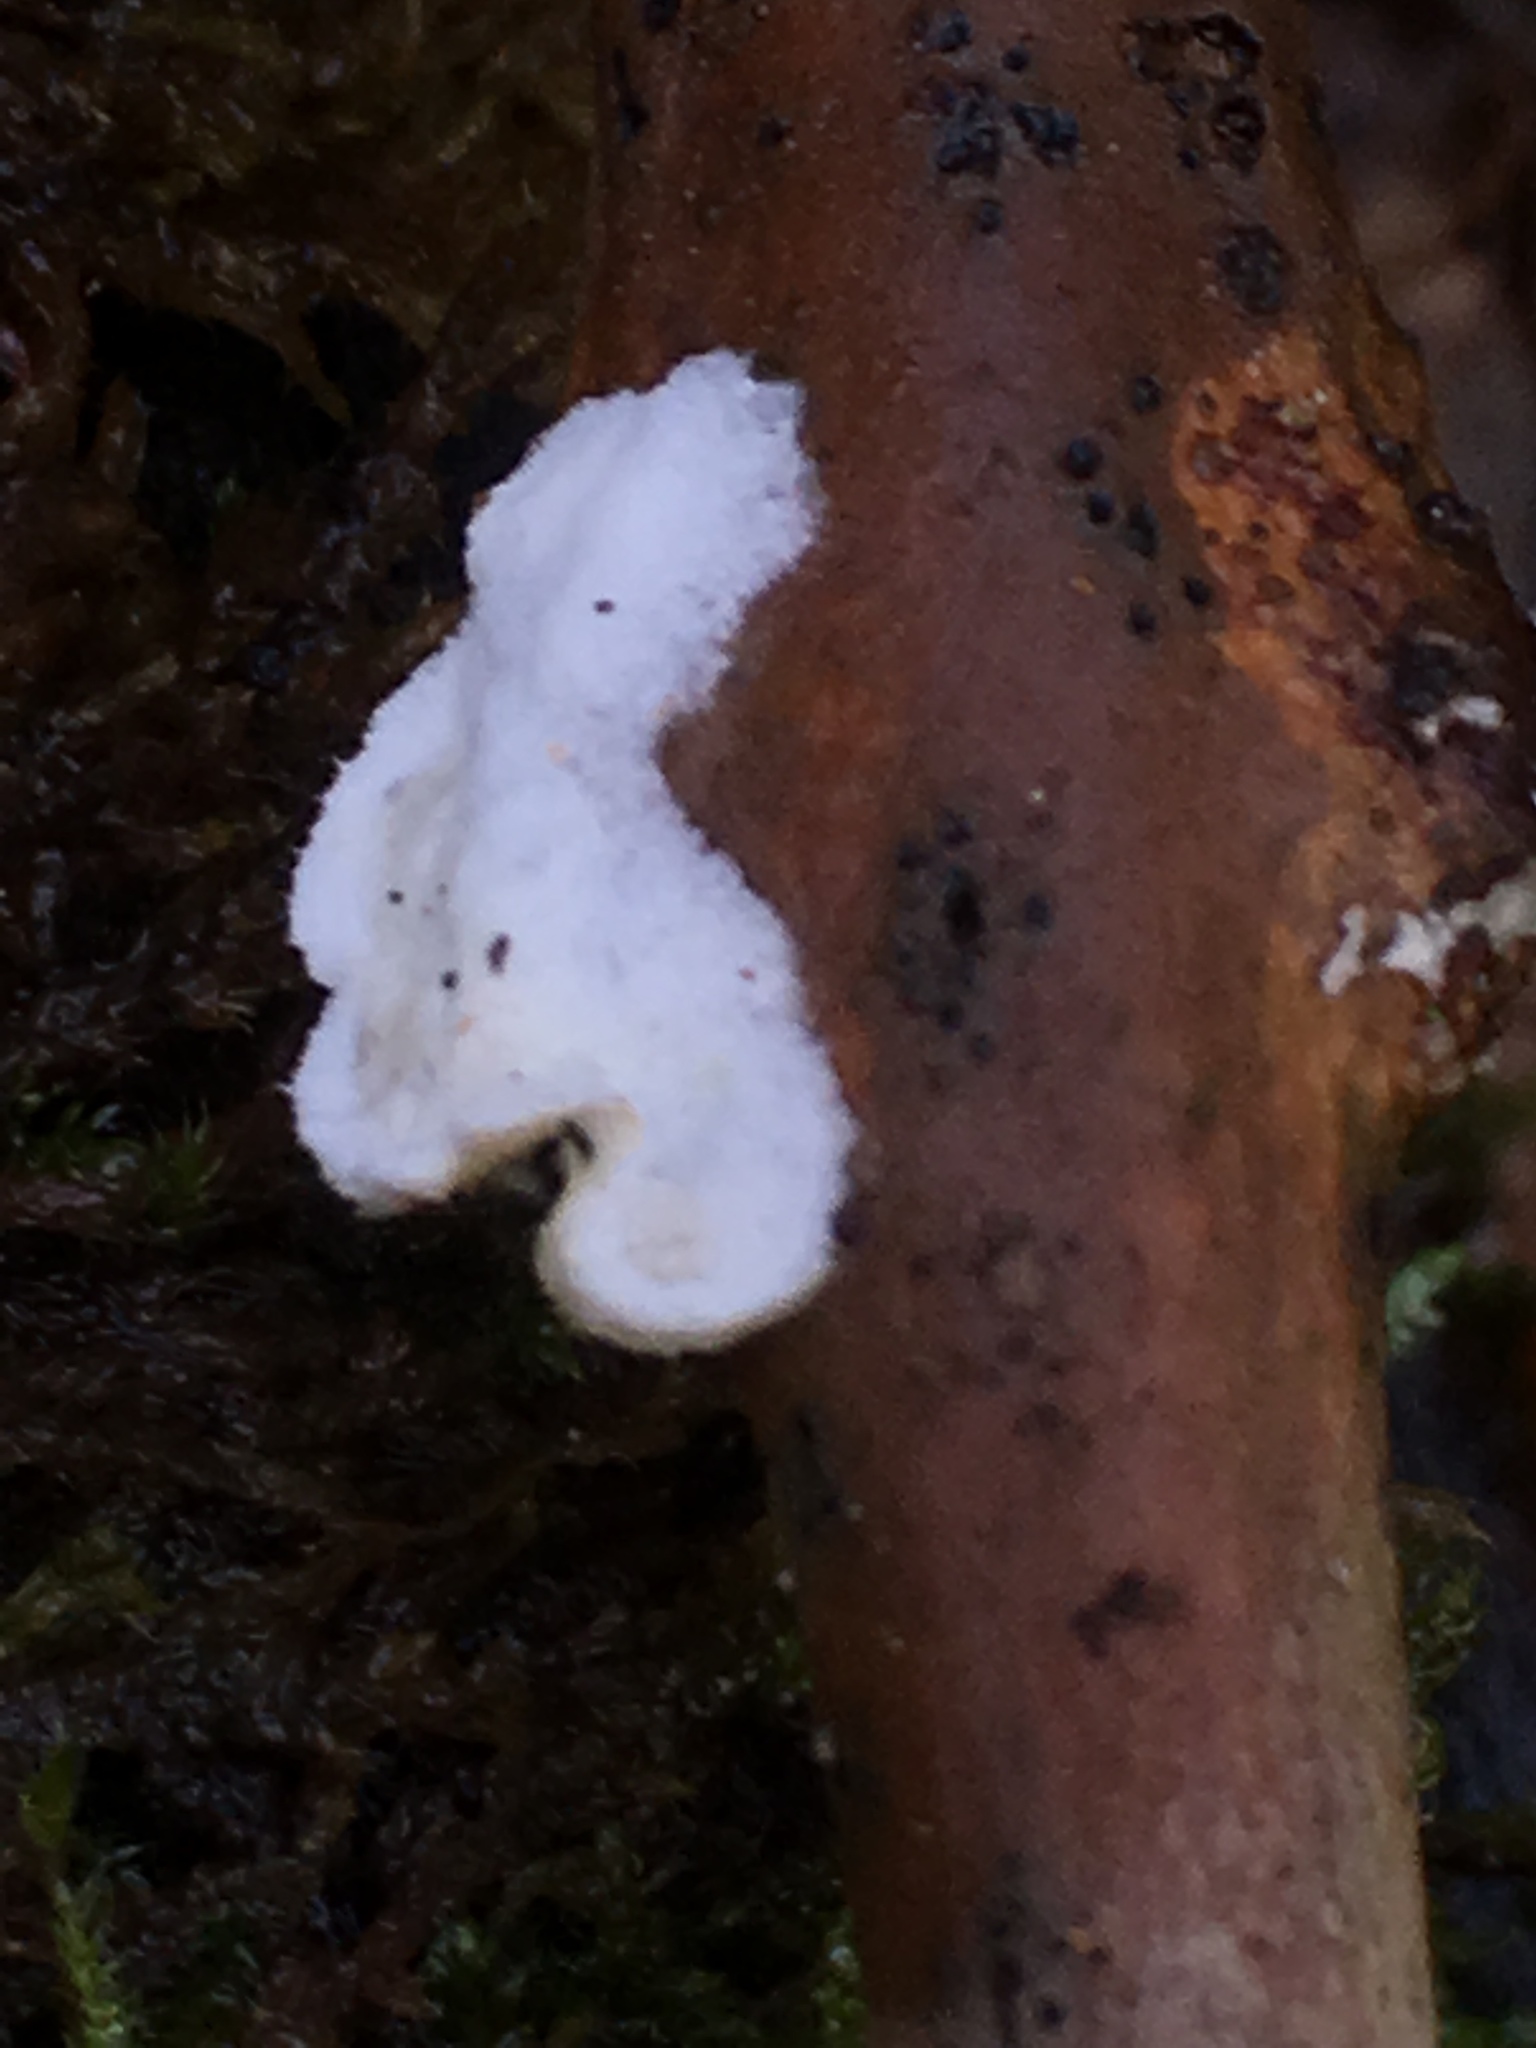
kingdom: Fungi
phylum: Basidiomycota
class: Agaricomycetes
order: Polyporales
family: Irpicaceae
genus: Vitreoporus
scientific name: Vitreoporus dichrous
